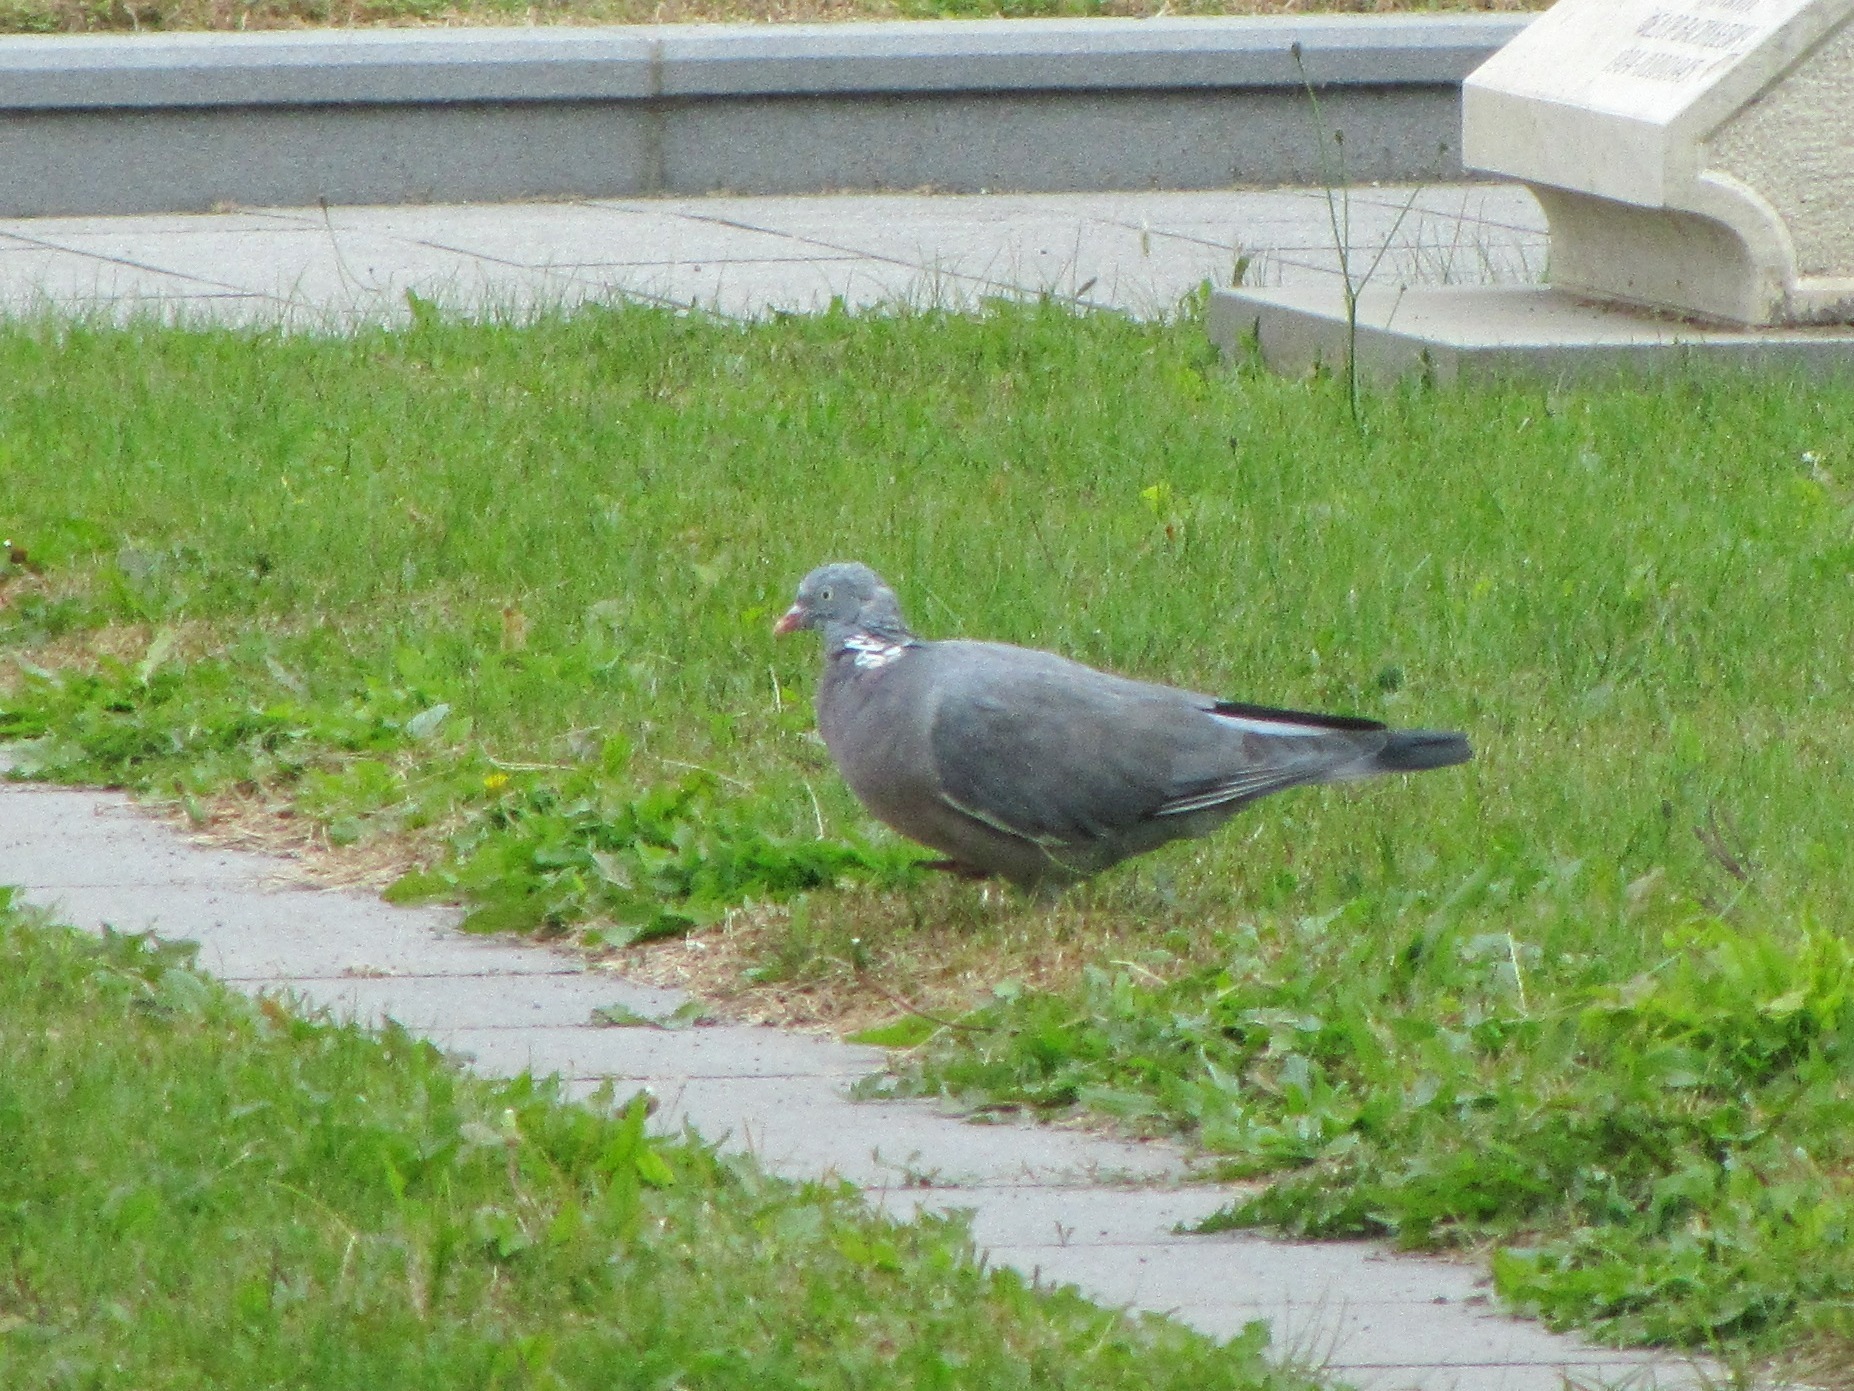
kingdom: Animalia
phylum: Chordata
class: Aves
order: Columbiformes
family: Columbidae
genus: Columba
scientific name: Columba palumbus
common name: Common wood pigeon
